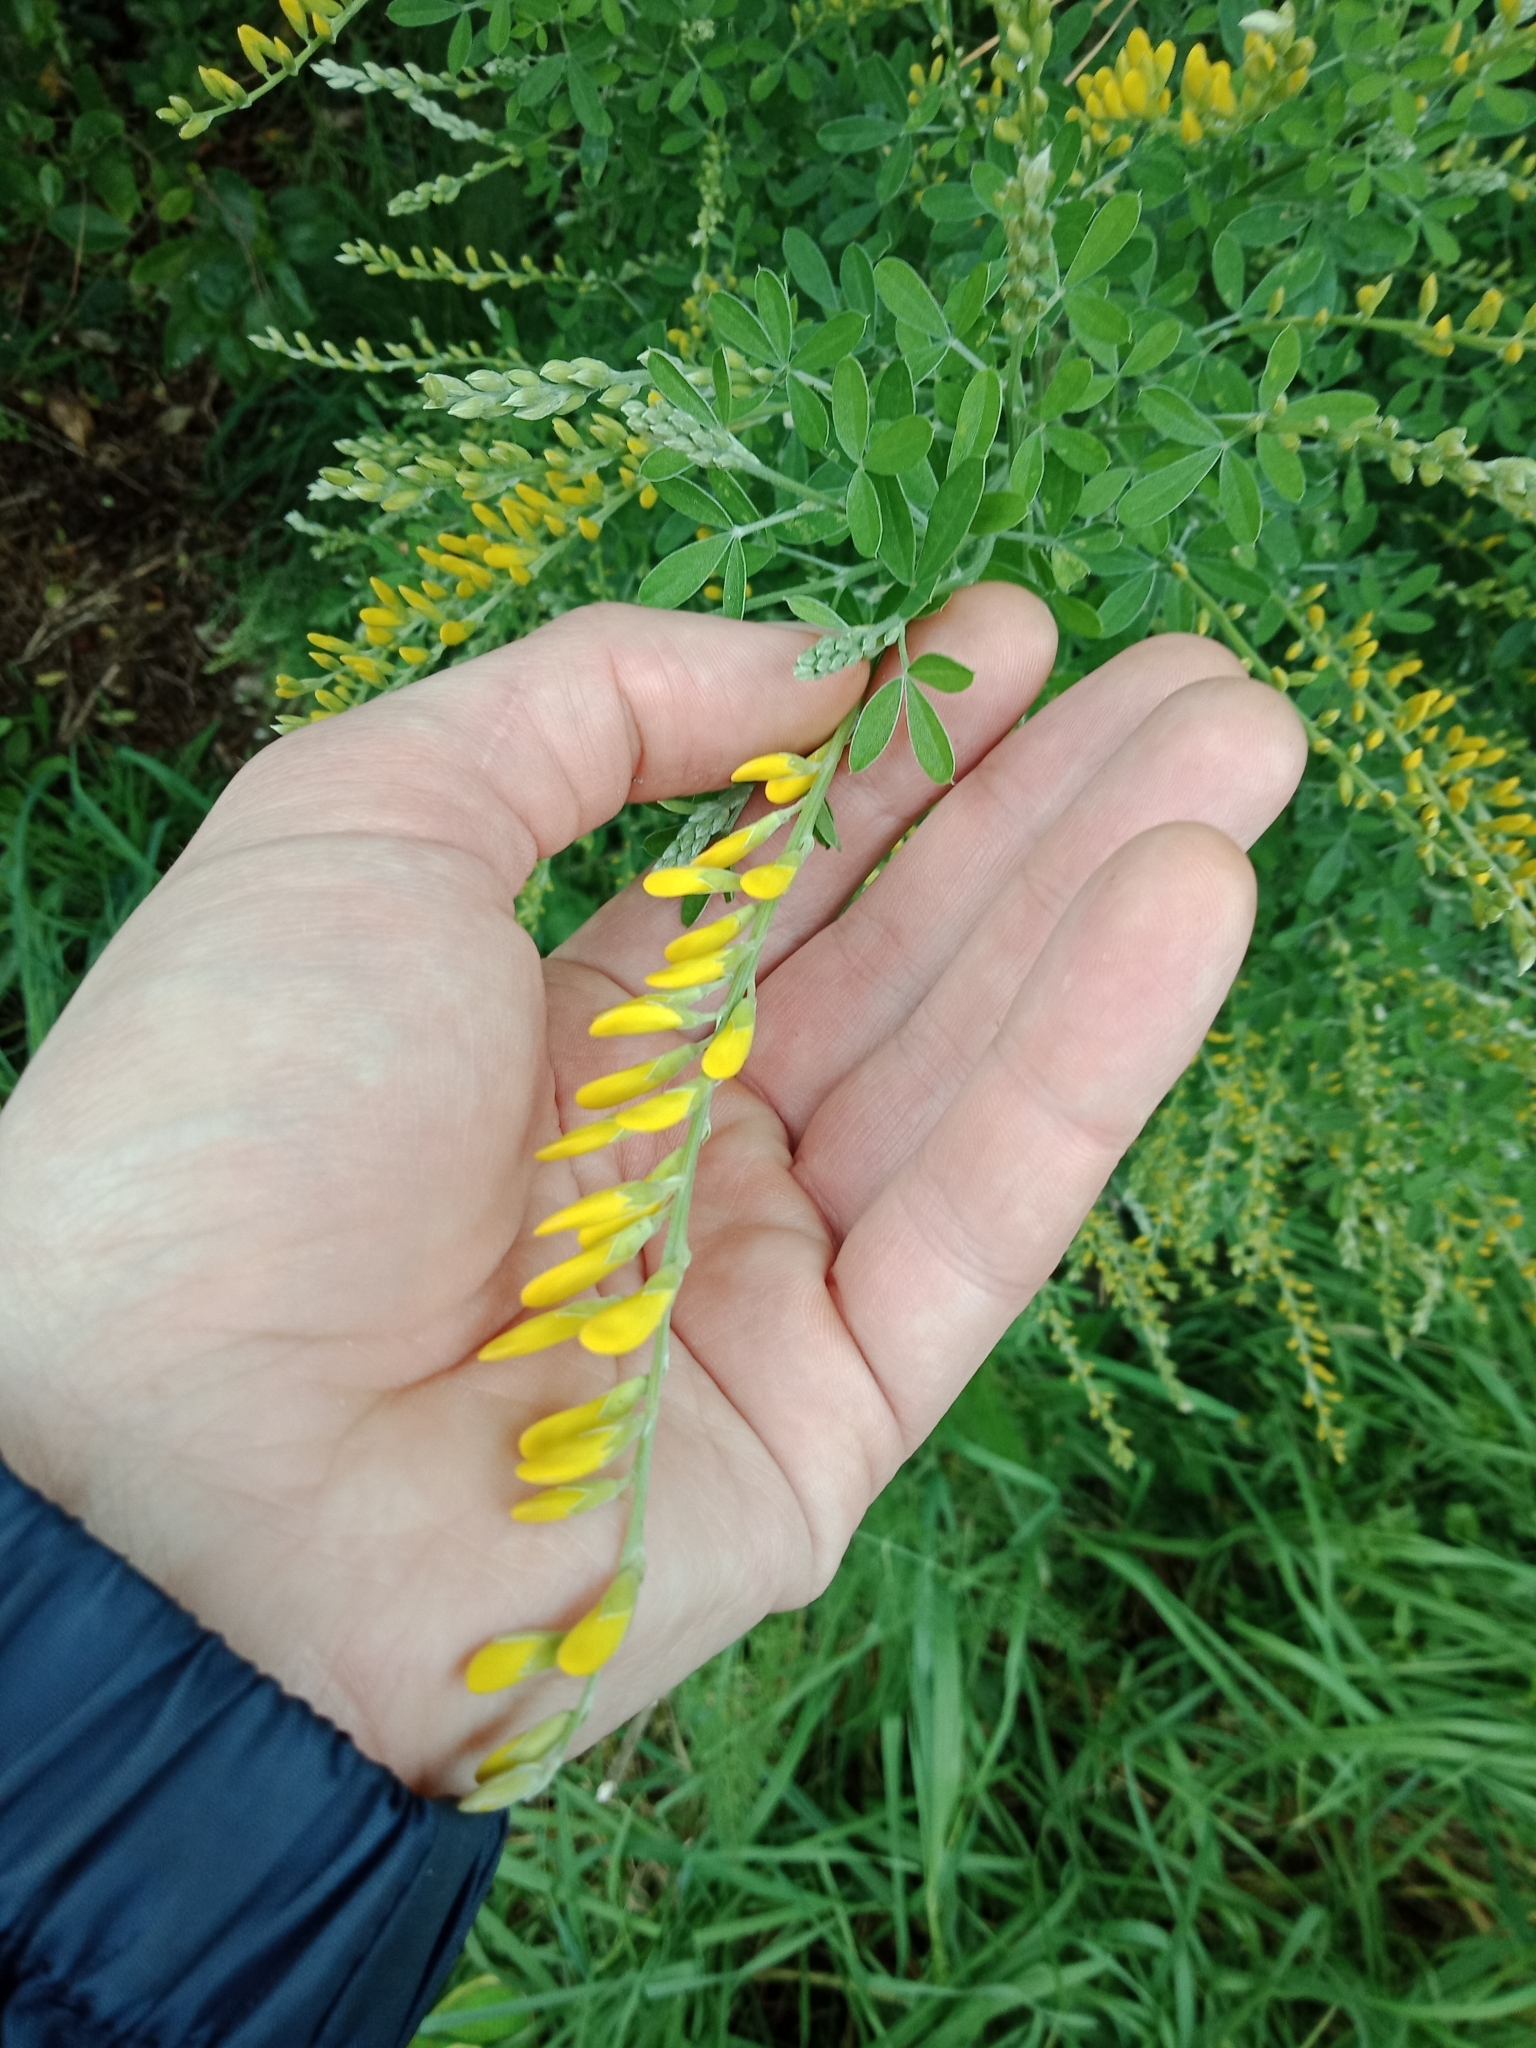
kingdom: Plantae
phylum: Tracheophyta
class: Magnoliopsida
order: Fabales
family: Fabaceae
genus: Genista
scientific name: Genista stenopetala
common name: Leafy broom
